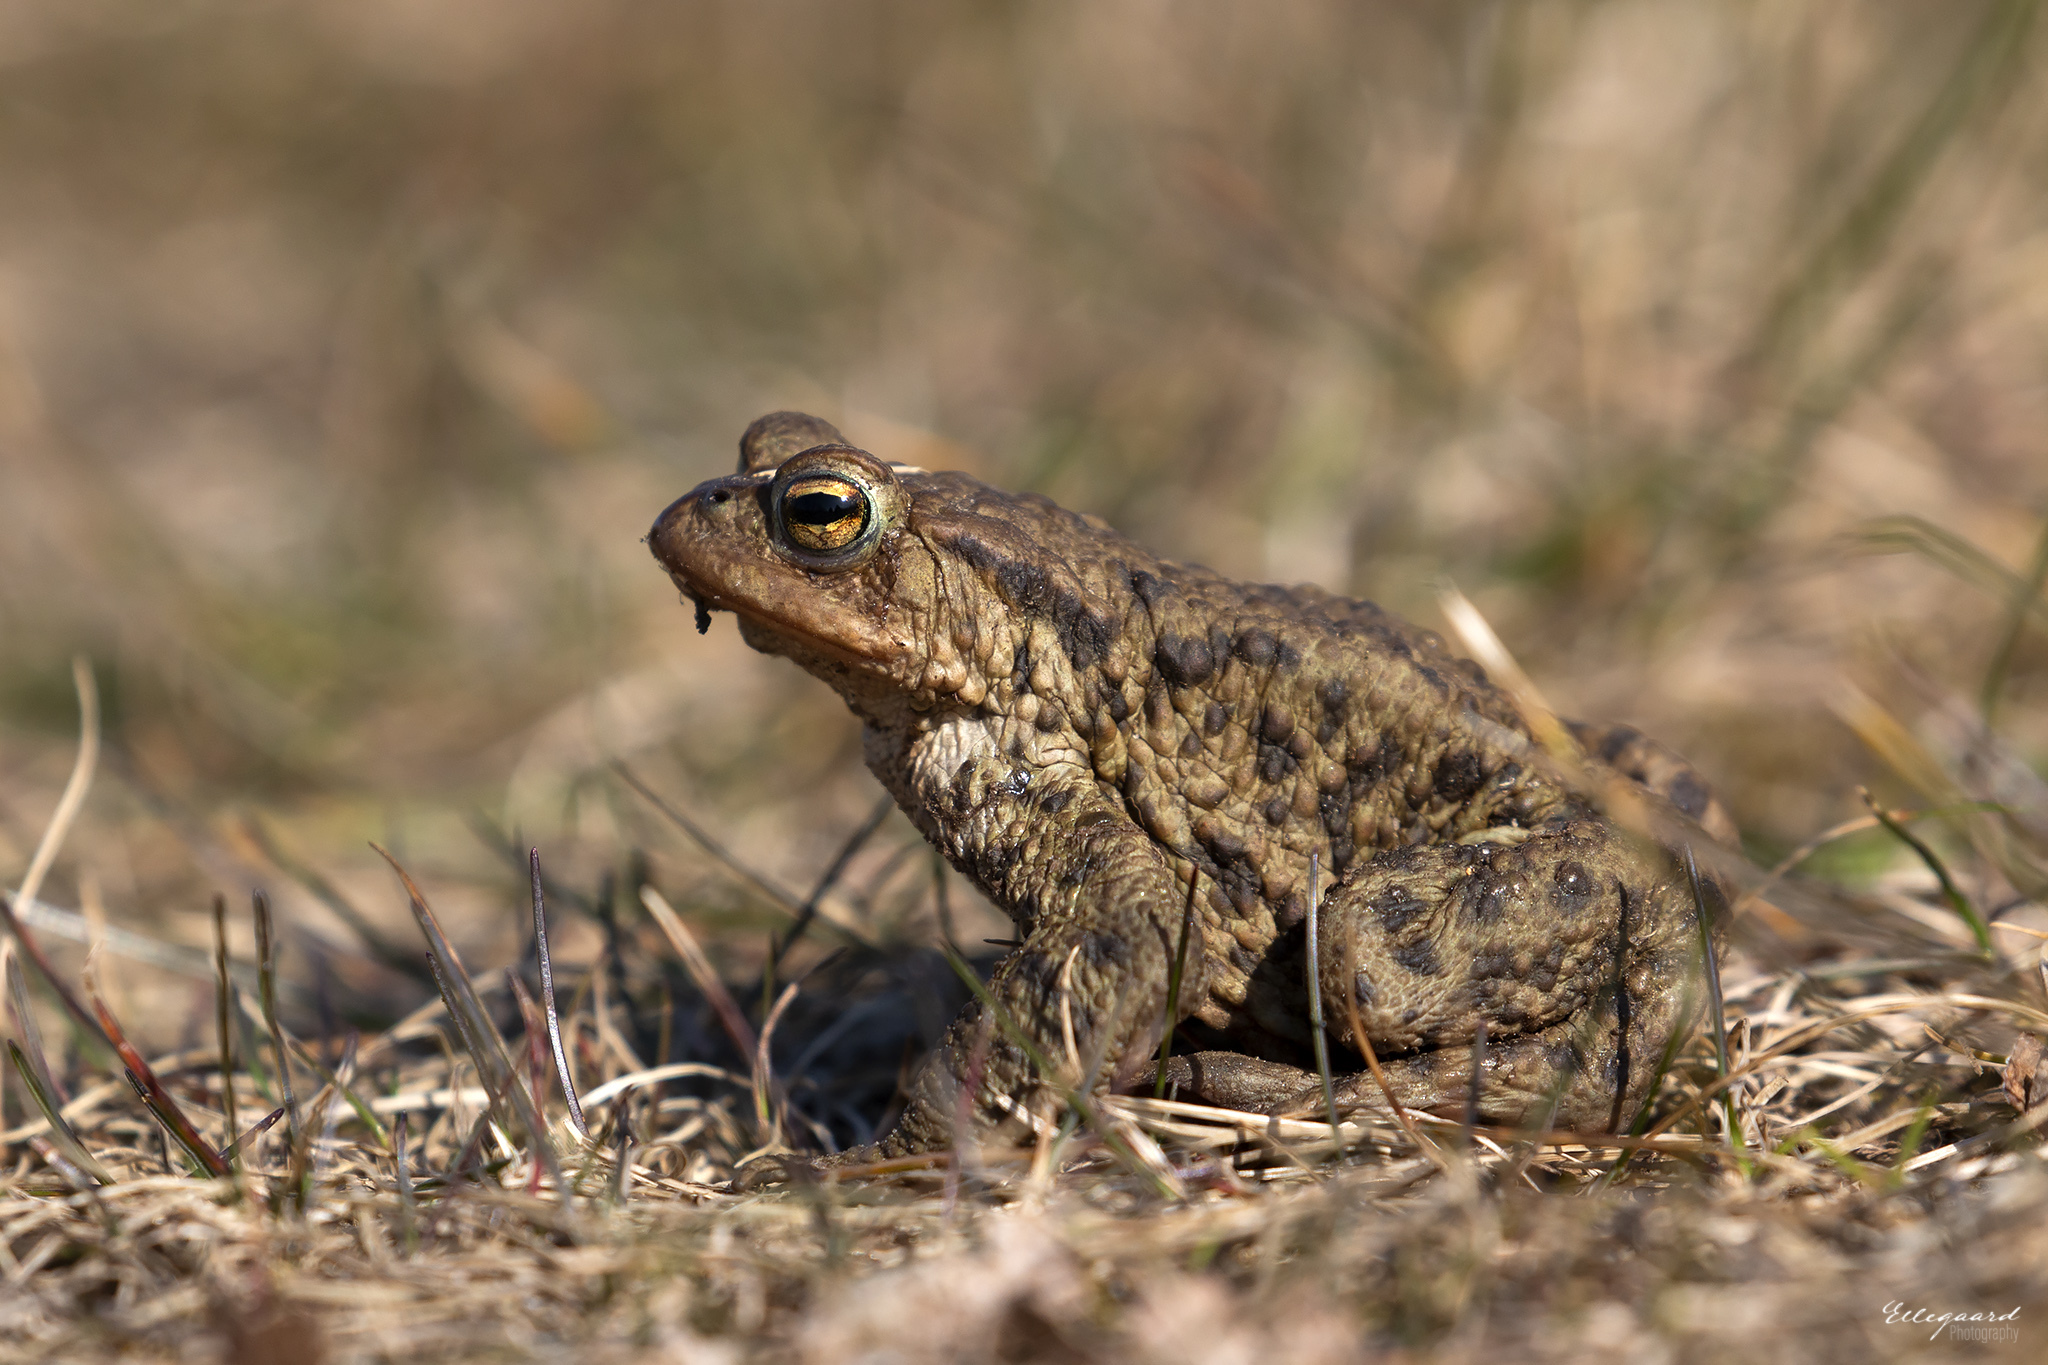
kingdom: Animalia
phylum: Chordata
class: Amphibia
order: Anura
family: Bufonidae
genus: Bufo
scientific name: Bufo bufo
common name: Common toad
